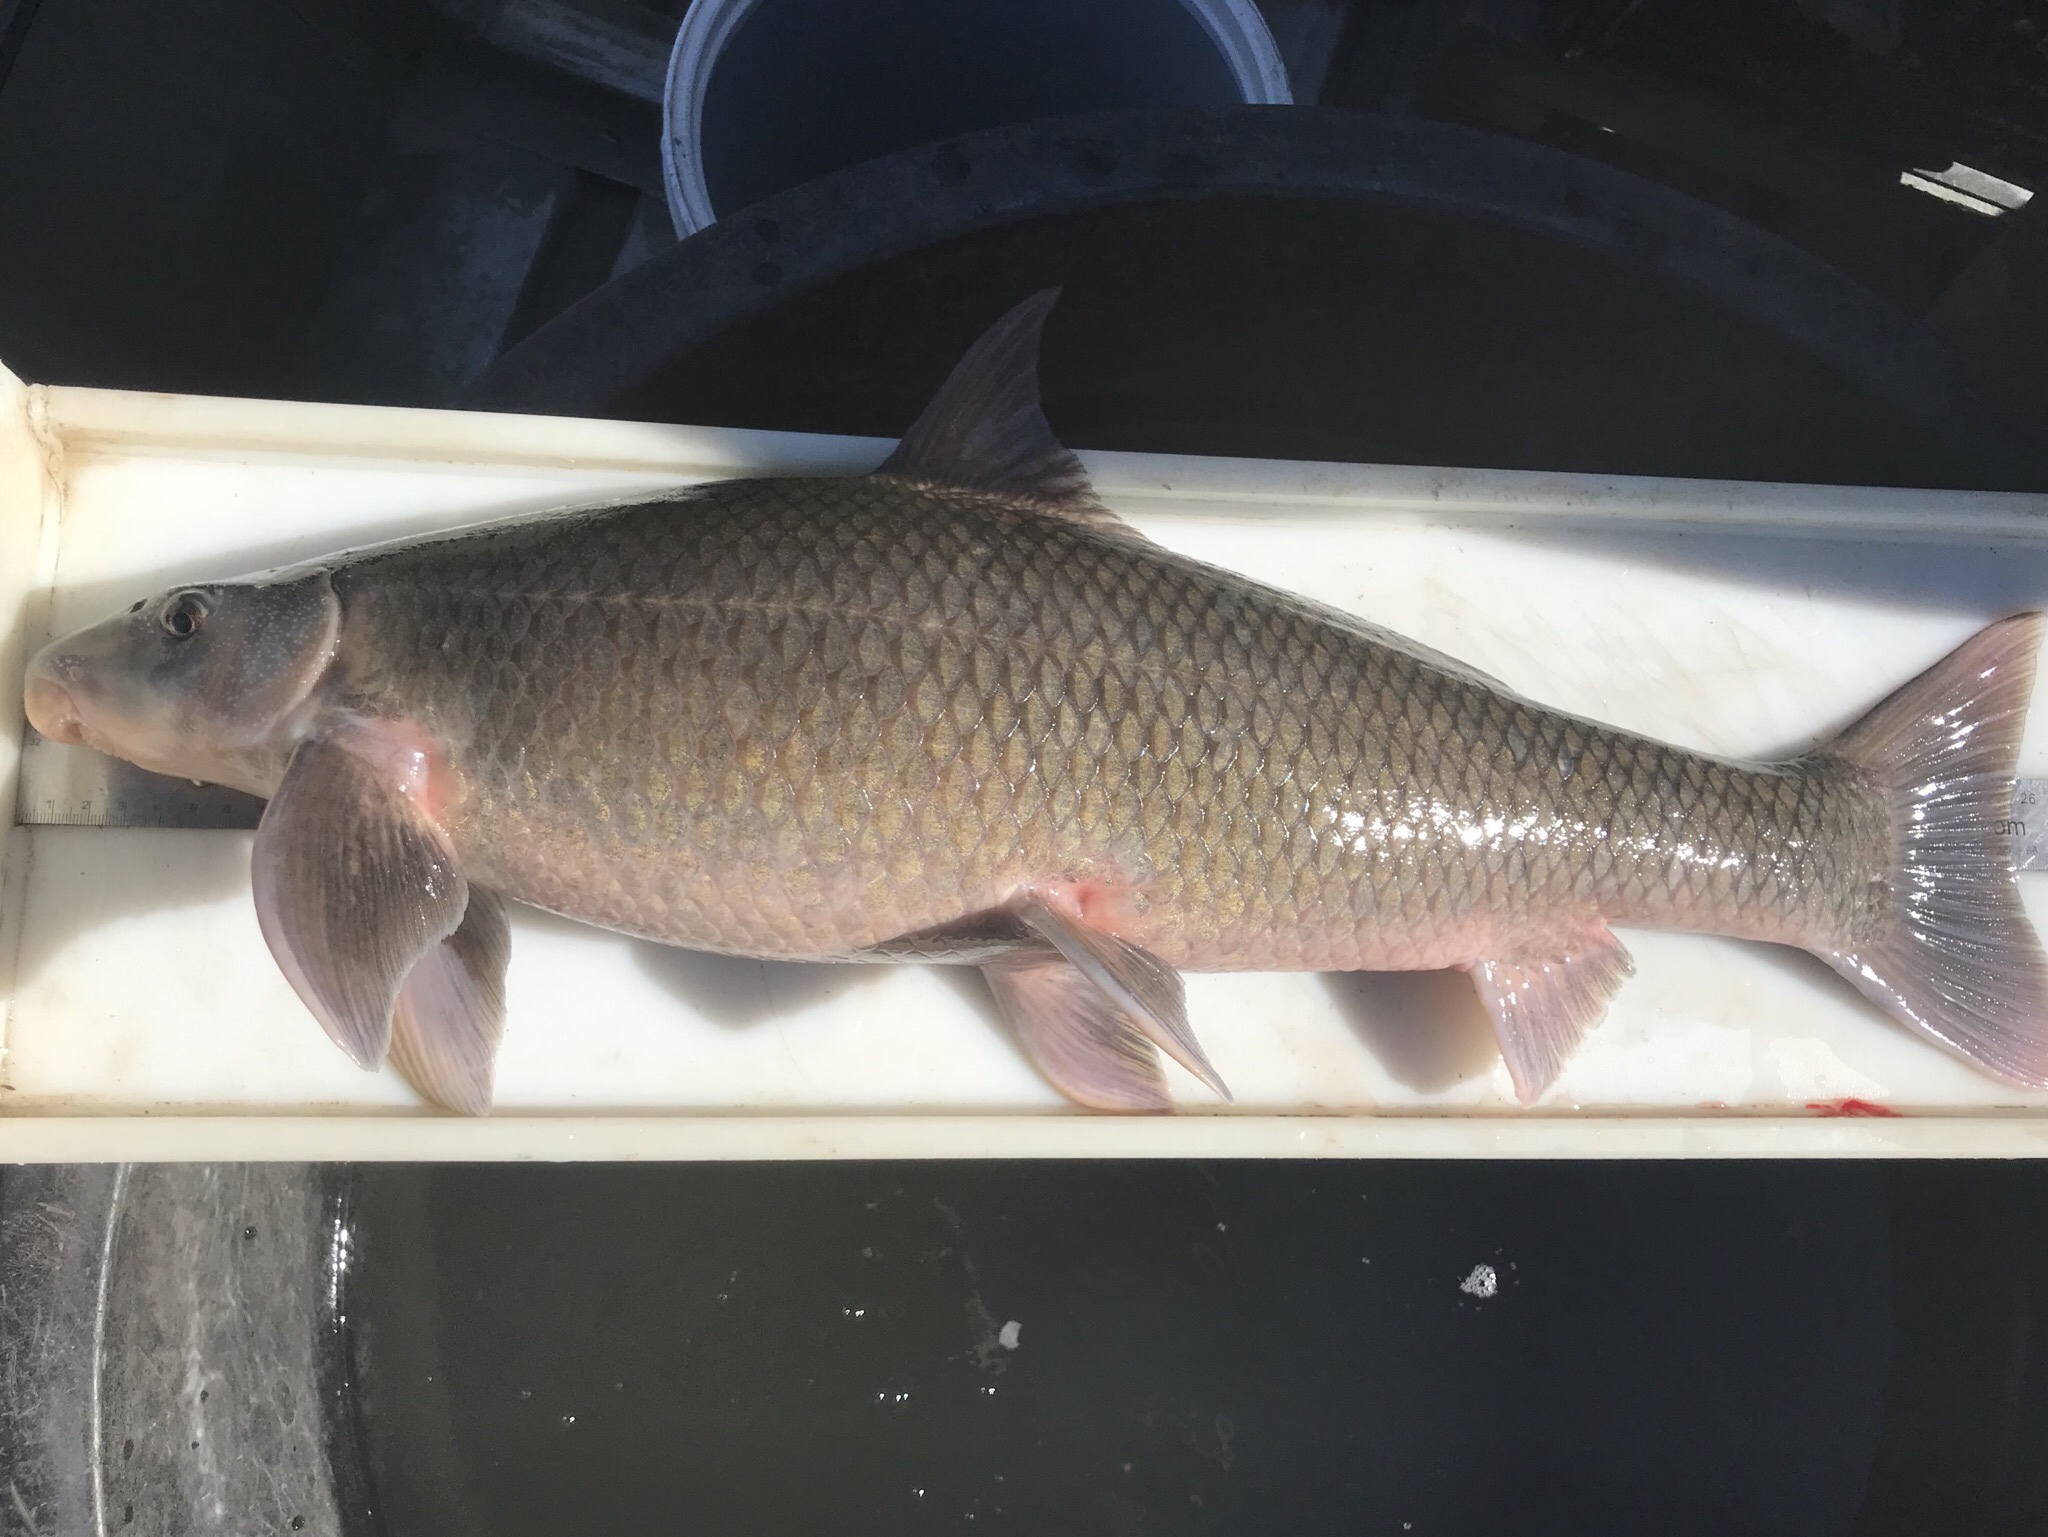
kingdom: Animalia
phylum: Chordata
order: Cypriniformes
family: Catostomidae
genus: Cycleptus
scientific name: Cycleptus elongatus
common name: Blue sucker
